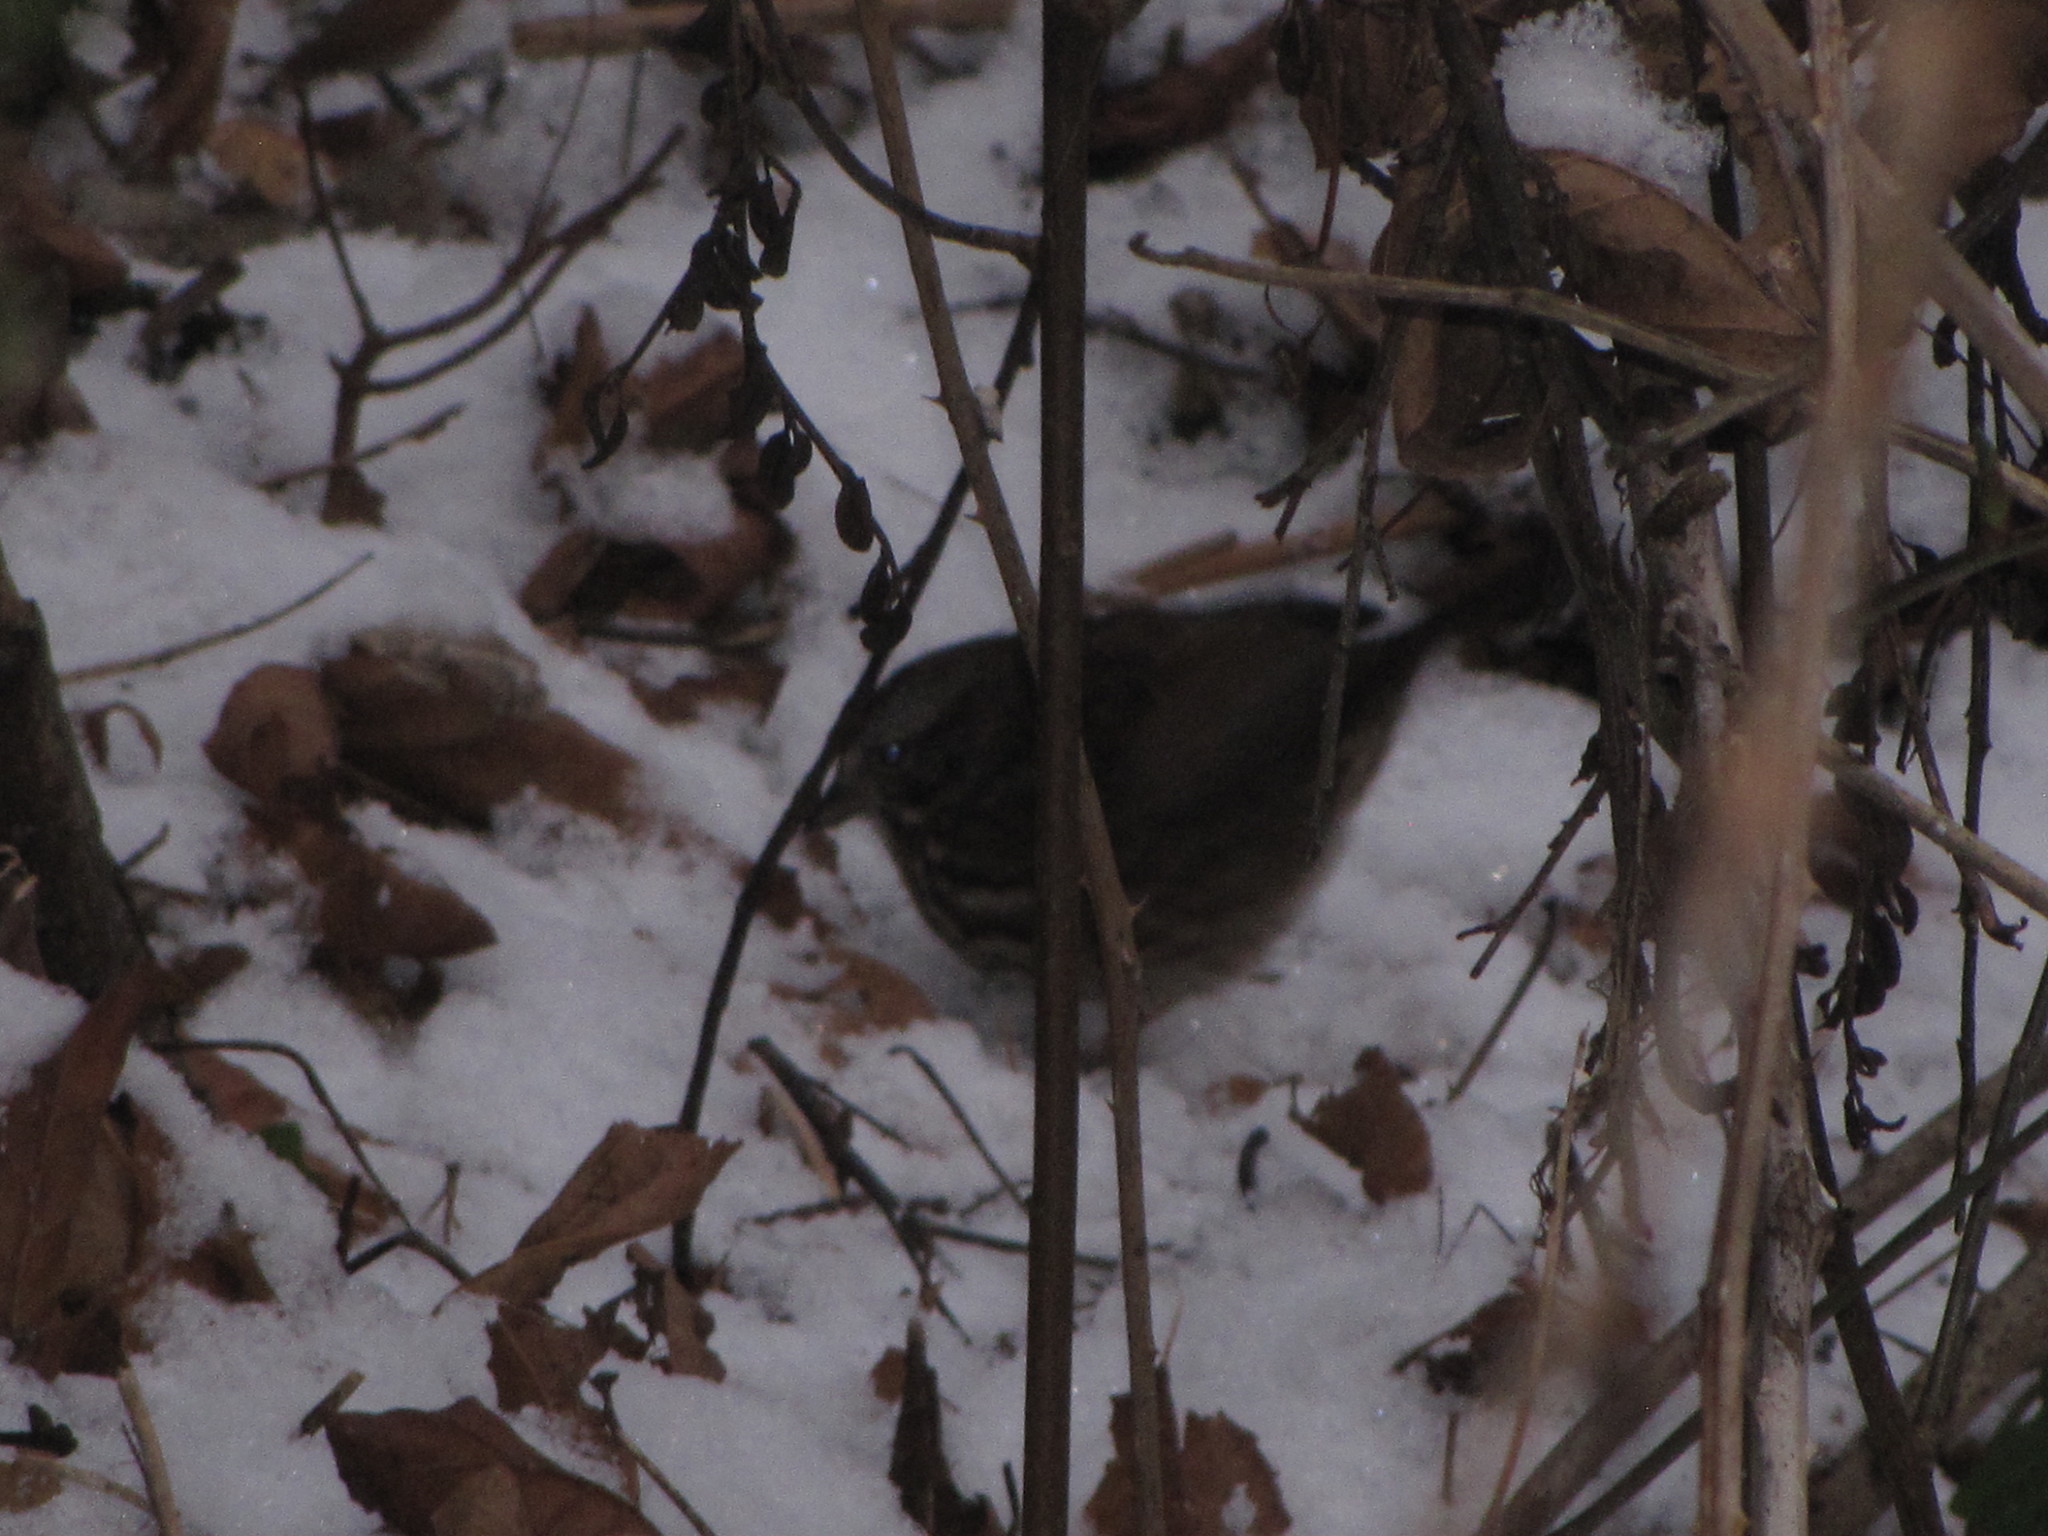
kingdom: Animalia
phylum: Chordata
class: Aves
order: Passeriformes
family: Passerellidae
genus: Melospiza
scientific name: Melospiza melodia
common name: Song sparrow
